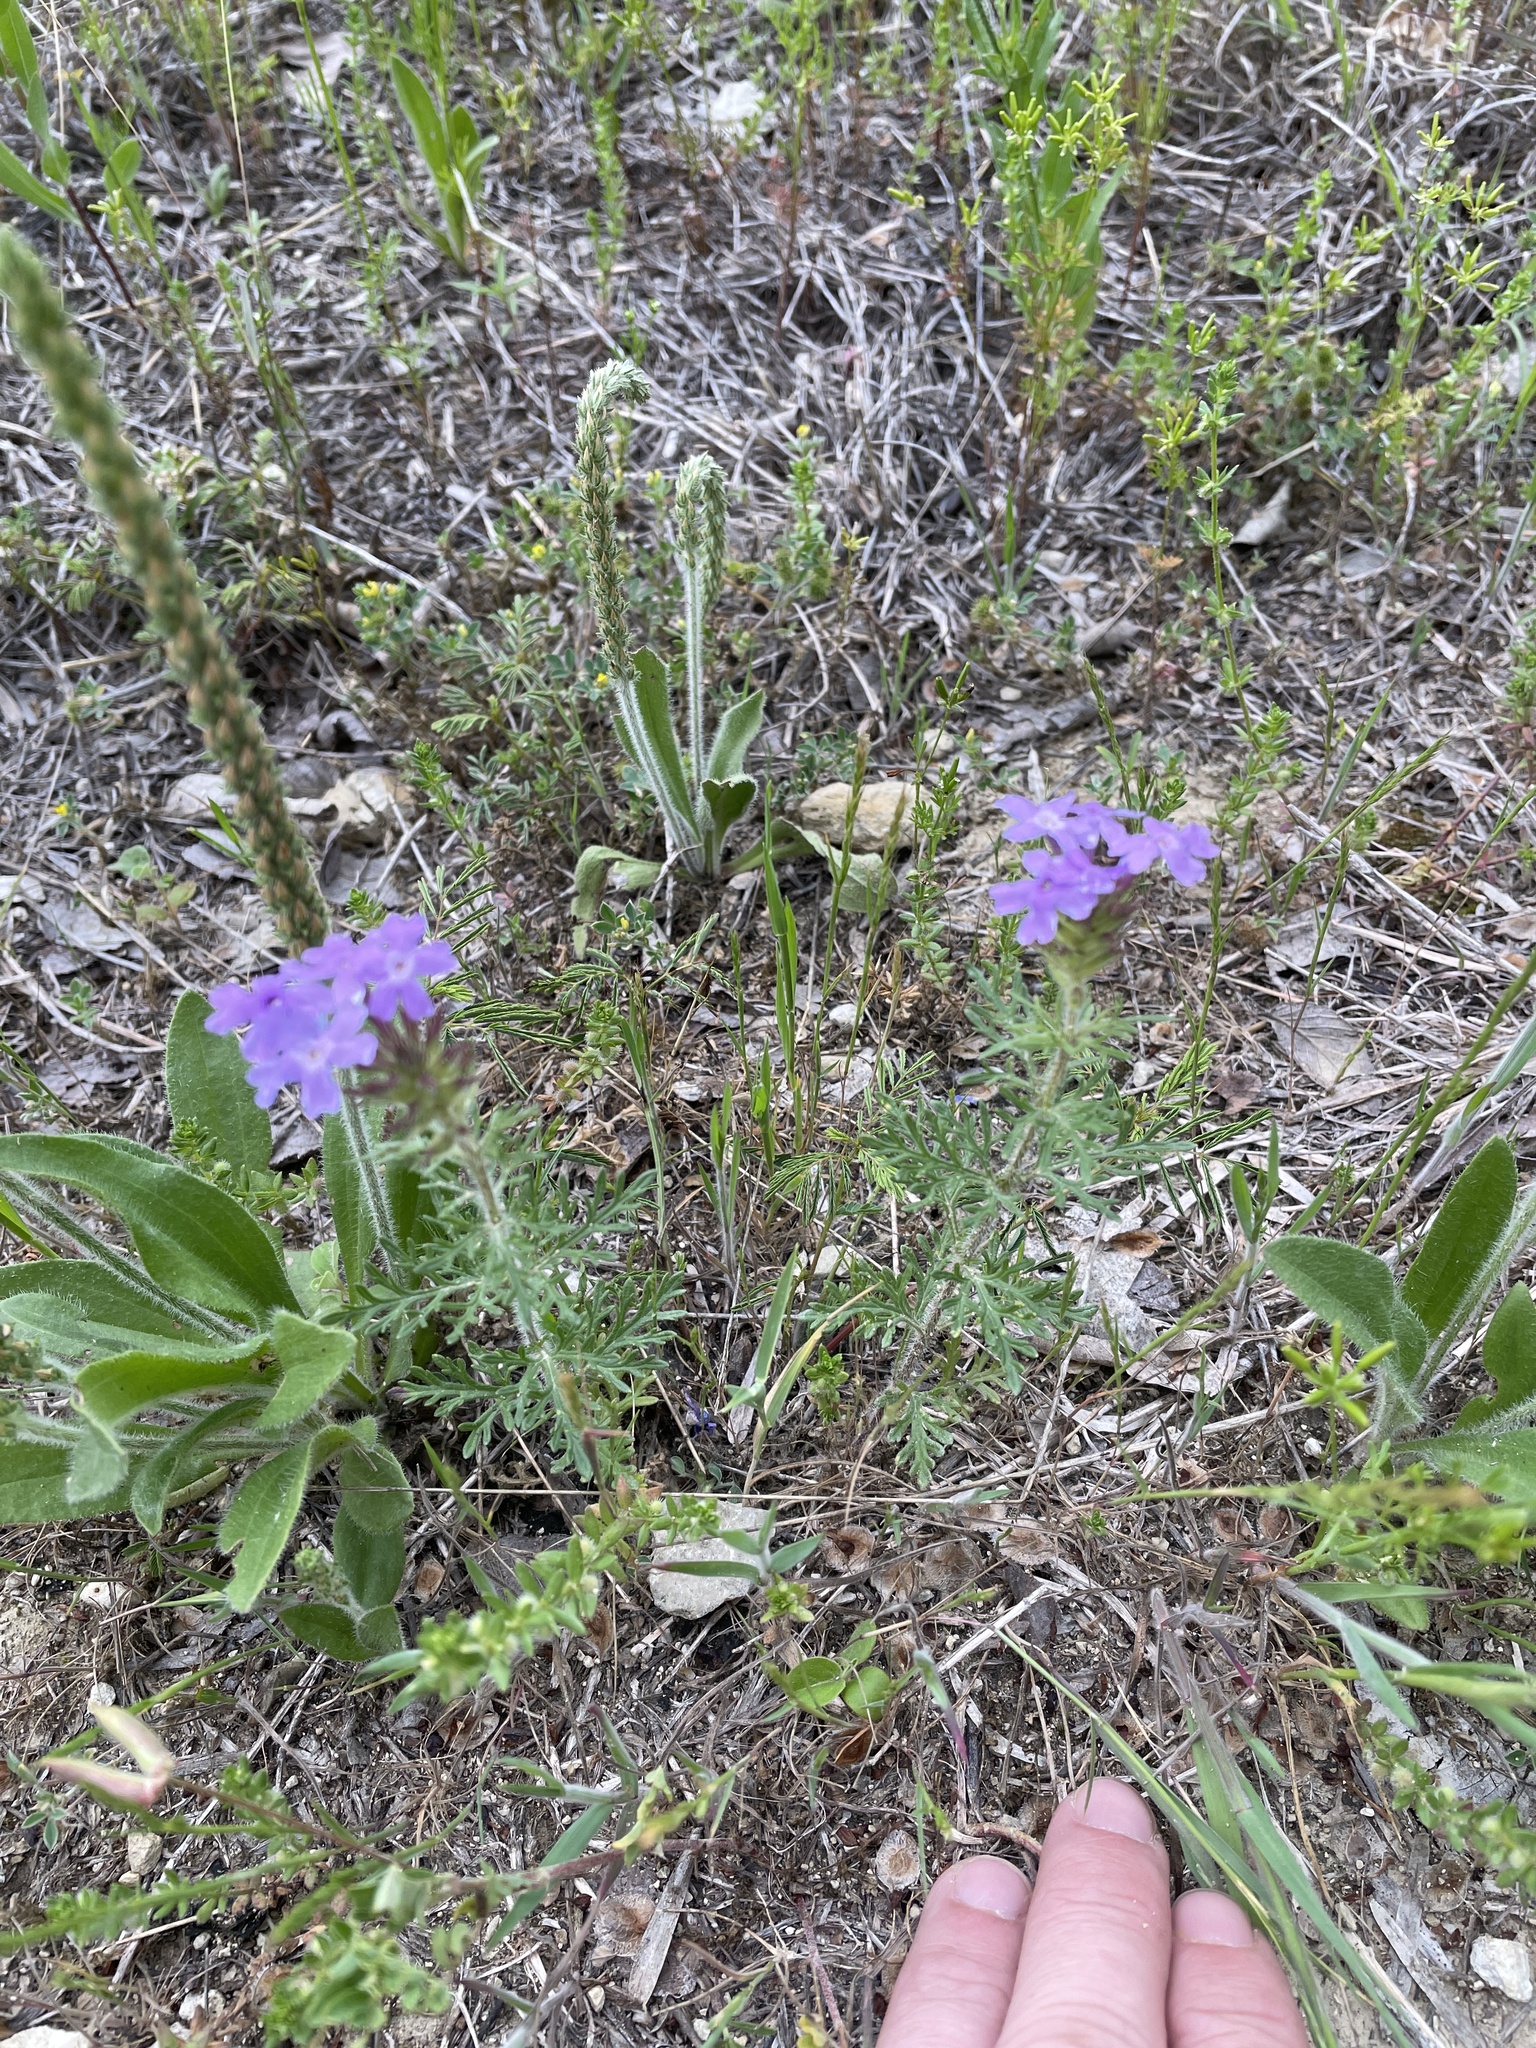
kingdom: Plantae
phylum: Tracheophyta
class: Magnoliopsida
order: Lamiales
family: Verbenaceae
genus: Verbena
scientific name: Verbena bipinnatifida
